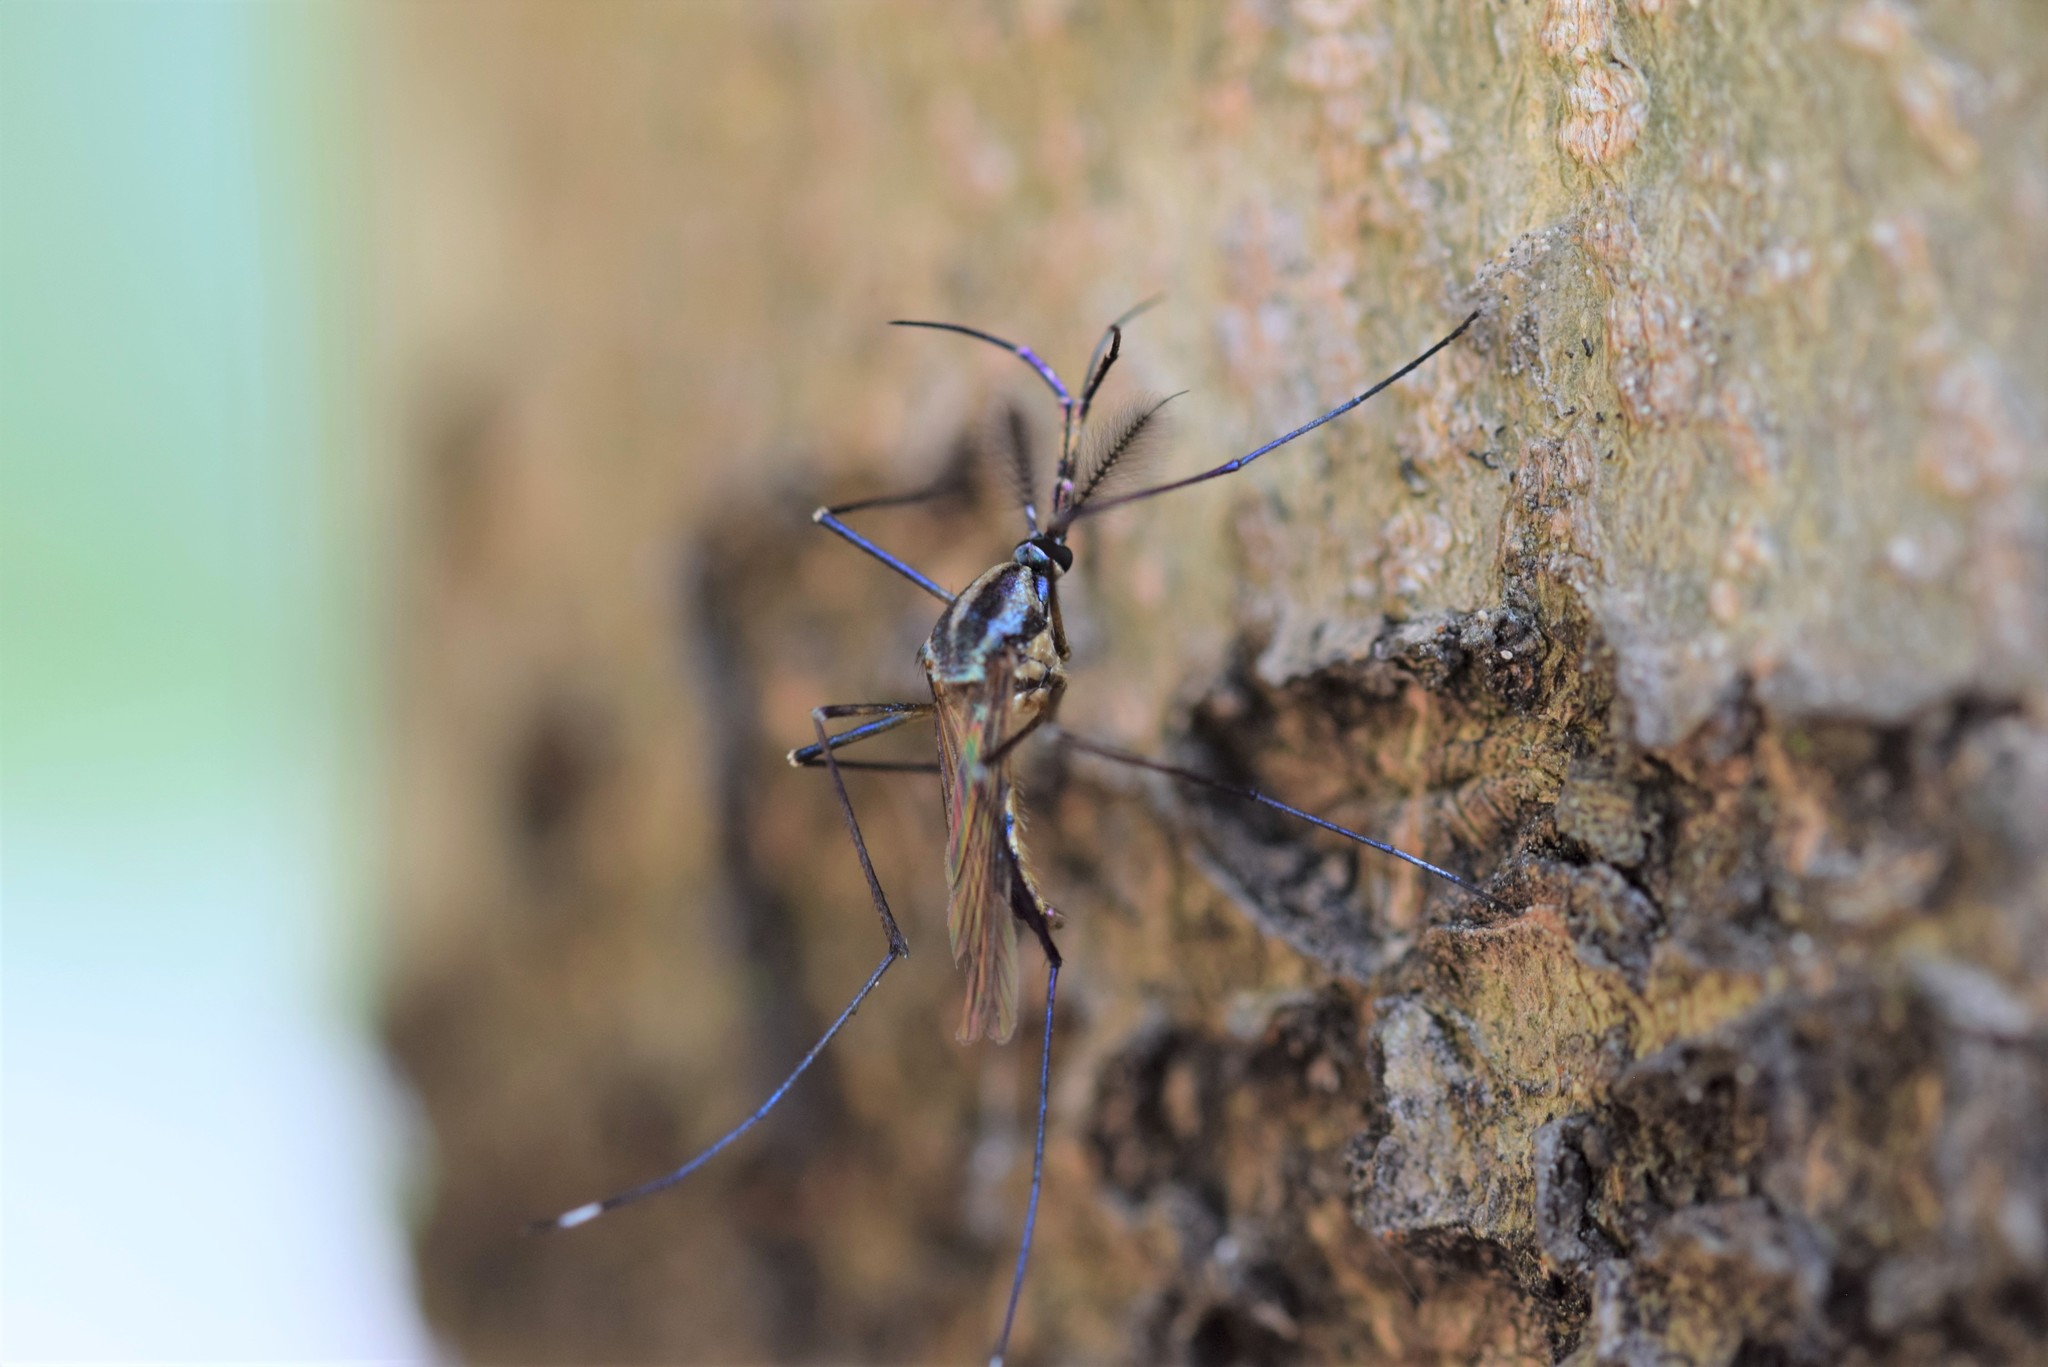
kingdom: Animalia
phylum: Arthropoda
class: Insecta
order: Diptera
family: Culicidae
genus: Toxorhynchites
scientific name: Toxorhynchites rutilus
